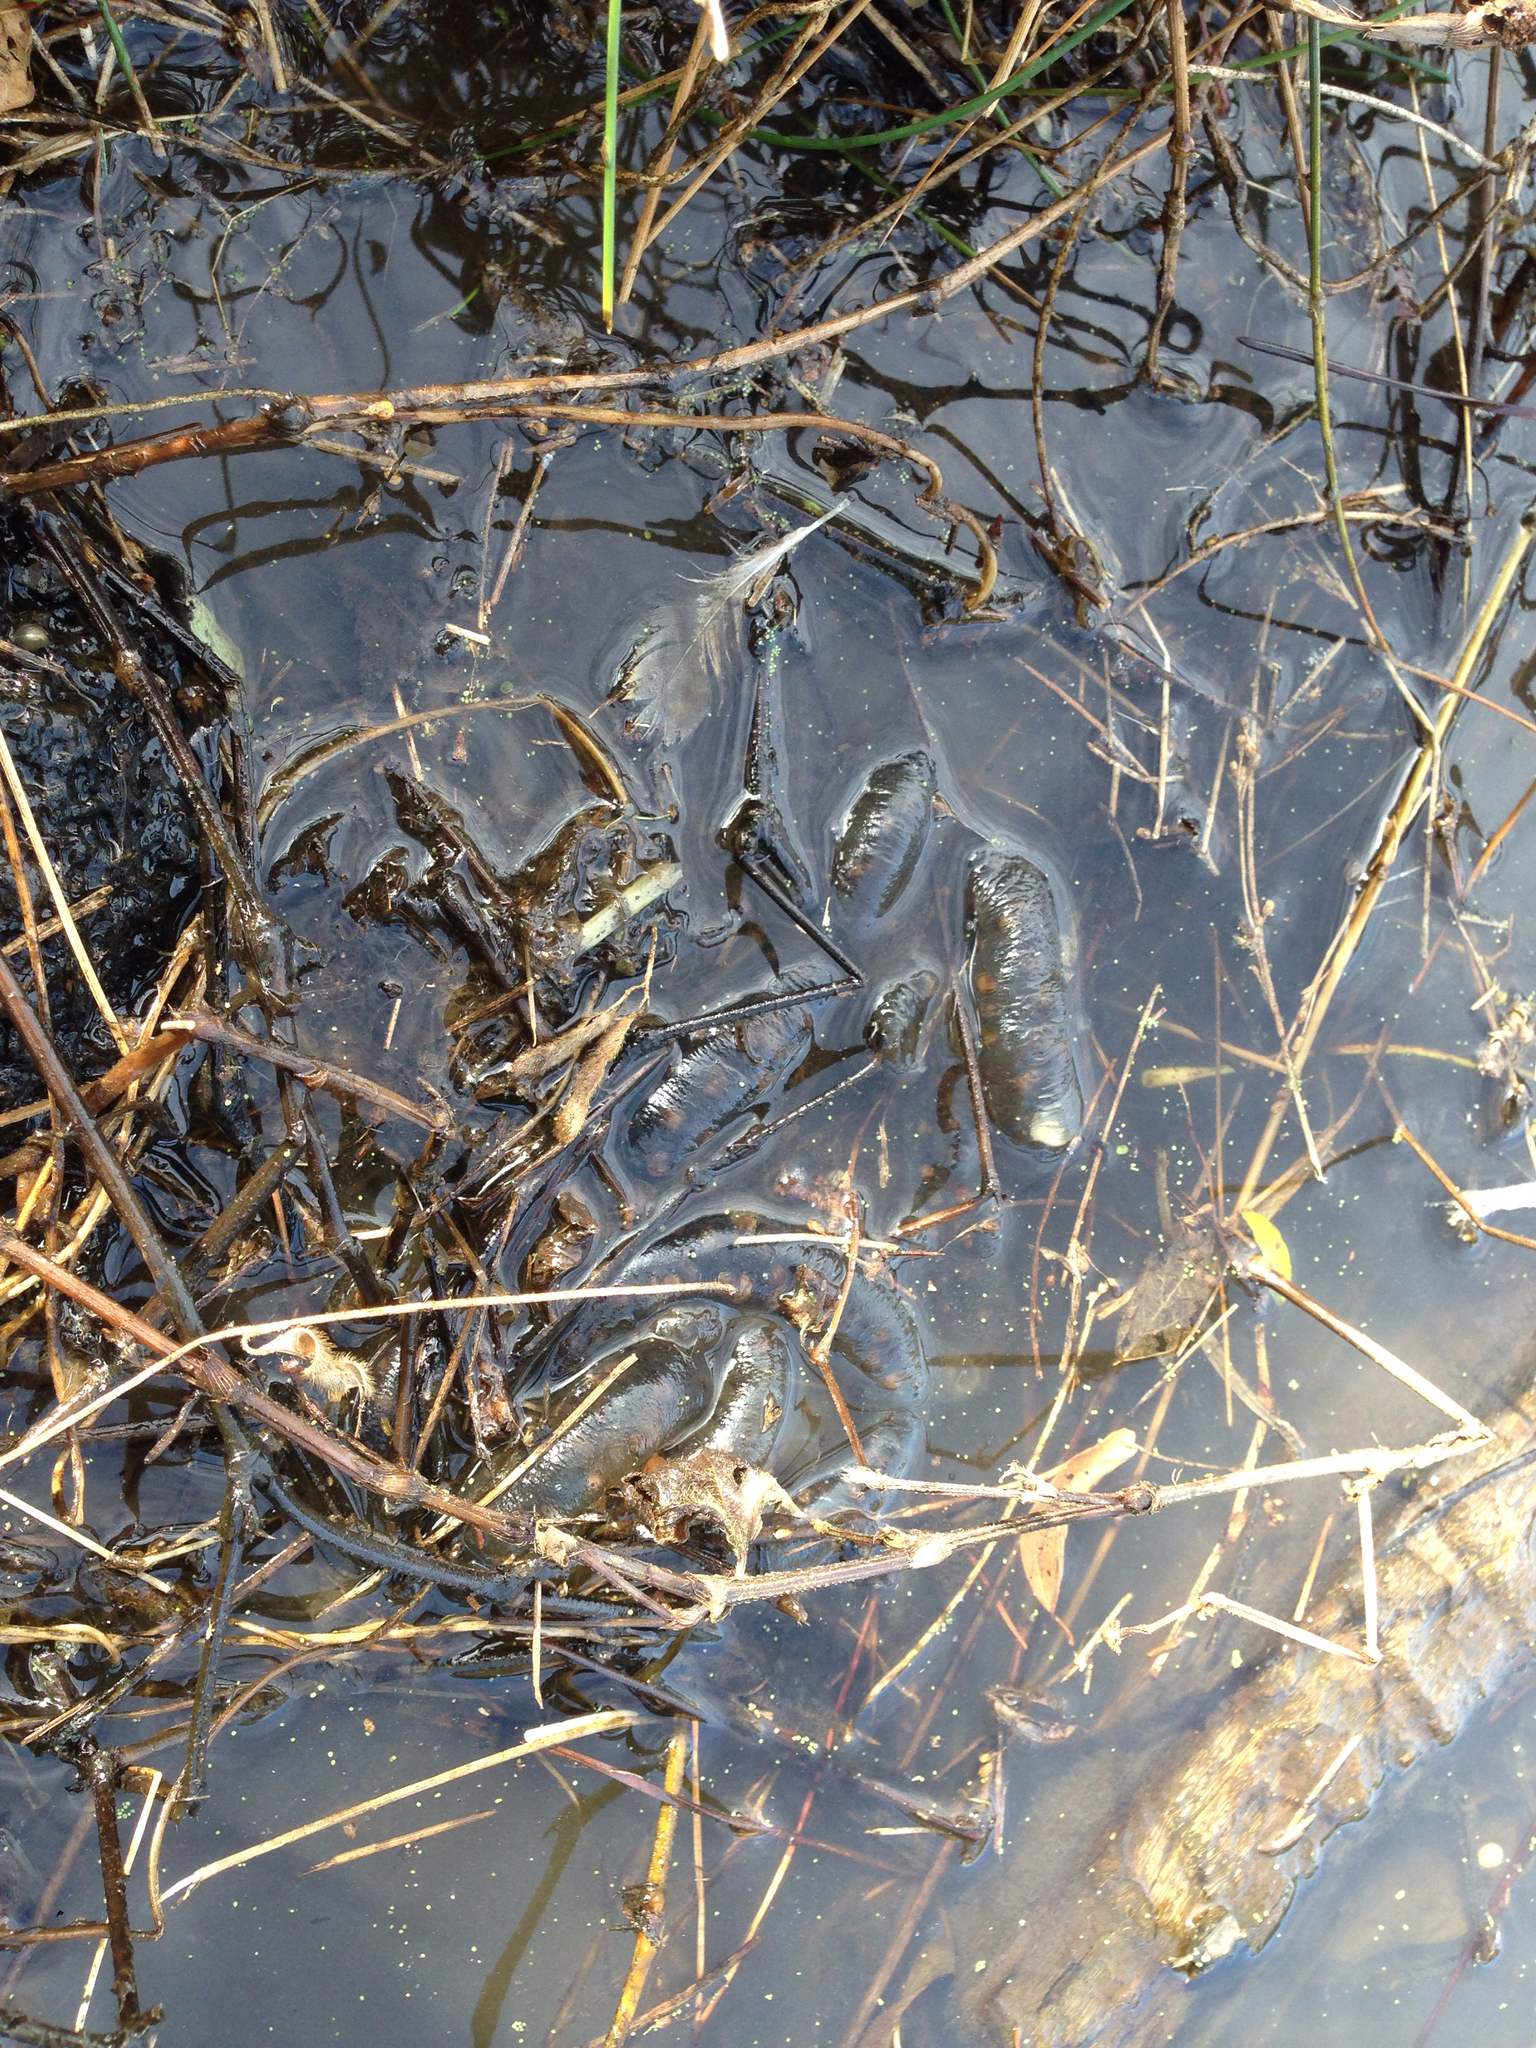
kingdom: Animalia
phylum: Chordata
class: Amphibia
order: Caudata
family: Hynobiidae
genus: Hynobius
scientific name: Hynobius quelpaertensis
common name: Cheju salamander
